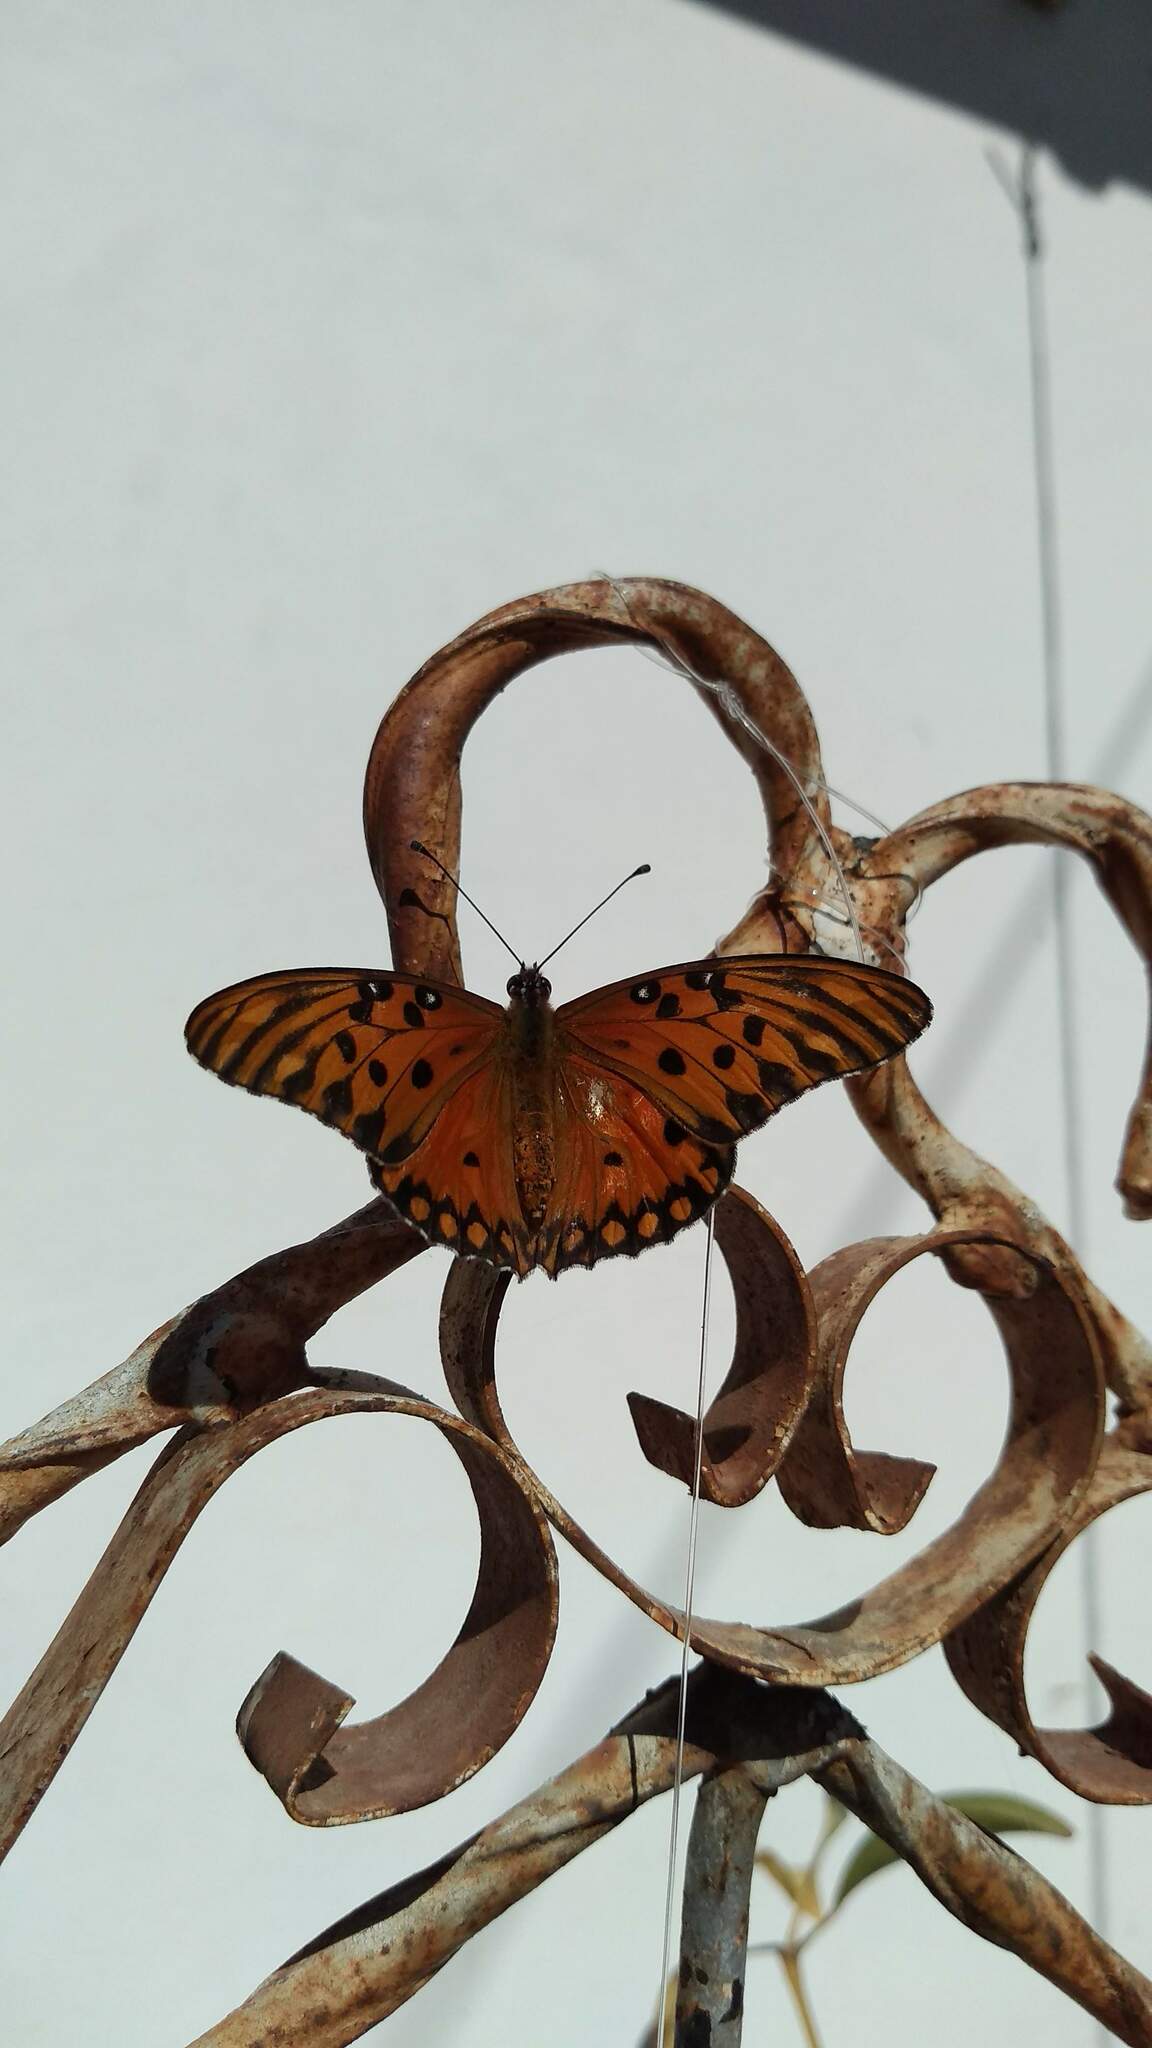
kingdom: Animalia
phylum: Arthropoda
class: Insecta
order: Lepidoptera
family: Nymphalidae
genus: Dione
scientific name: Dione vanillae
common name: Gulf fritillary
